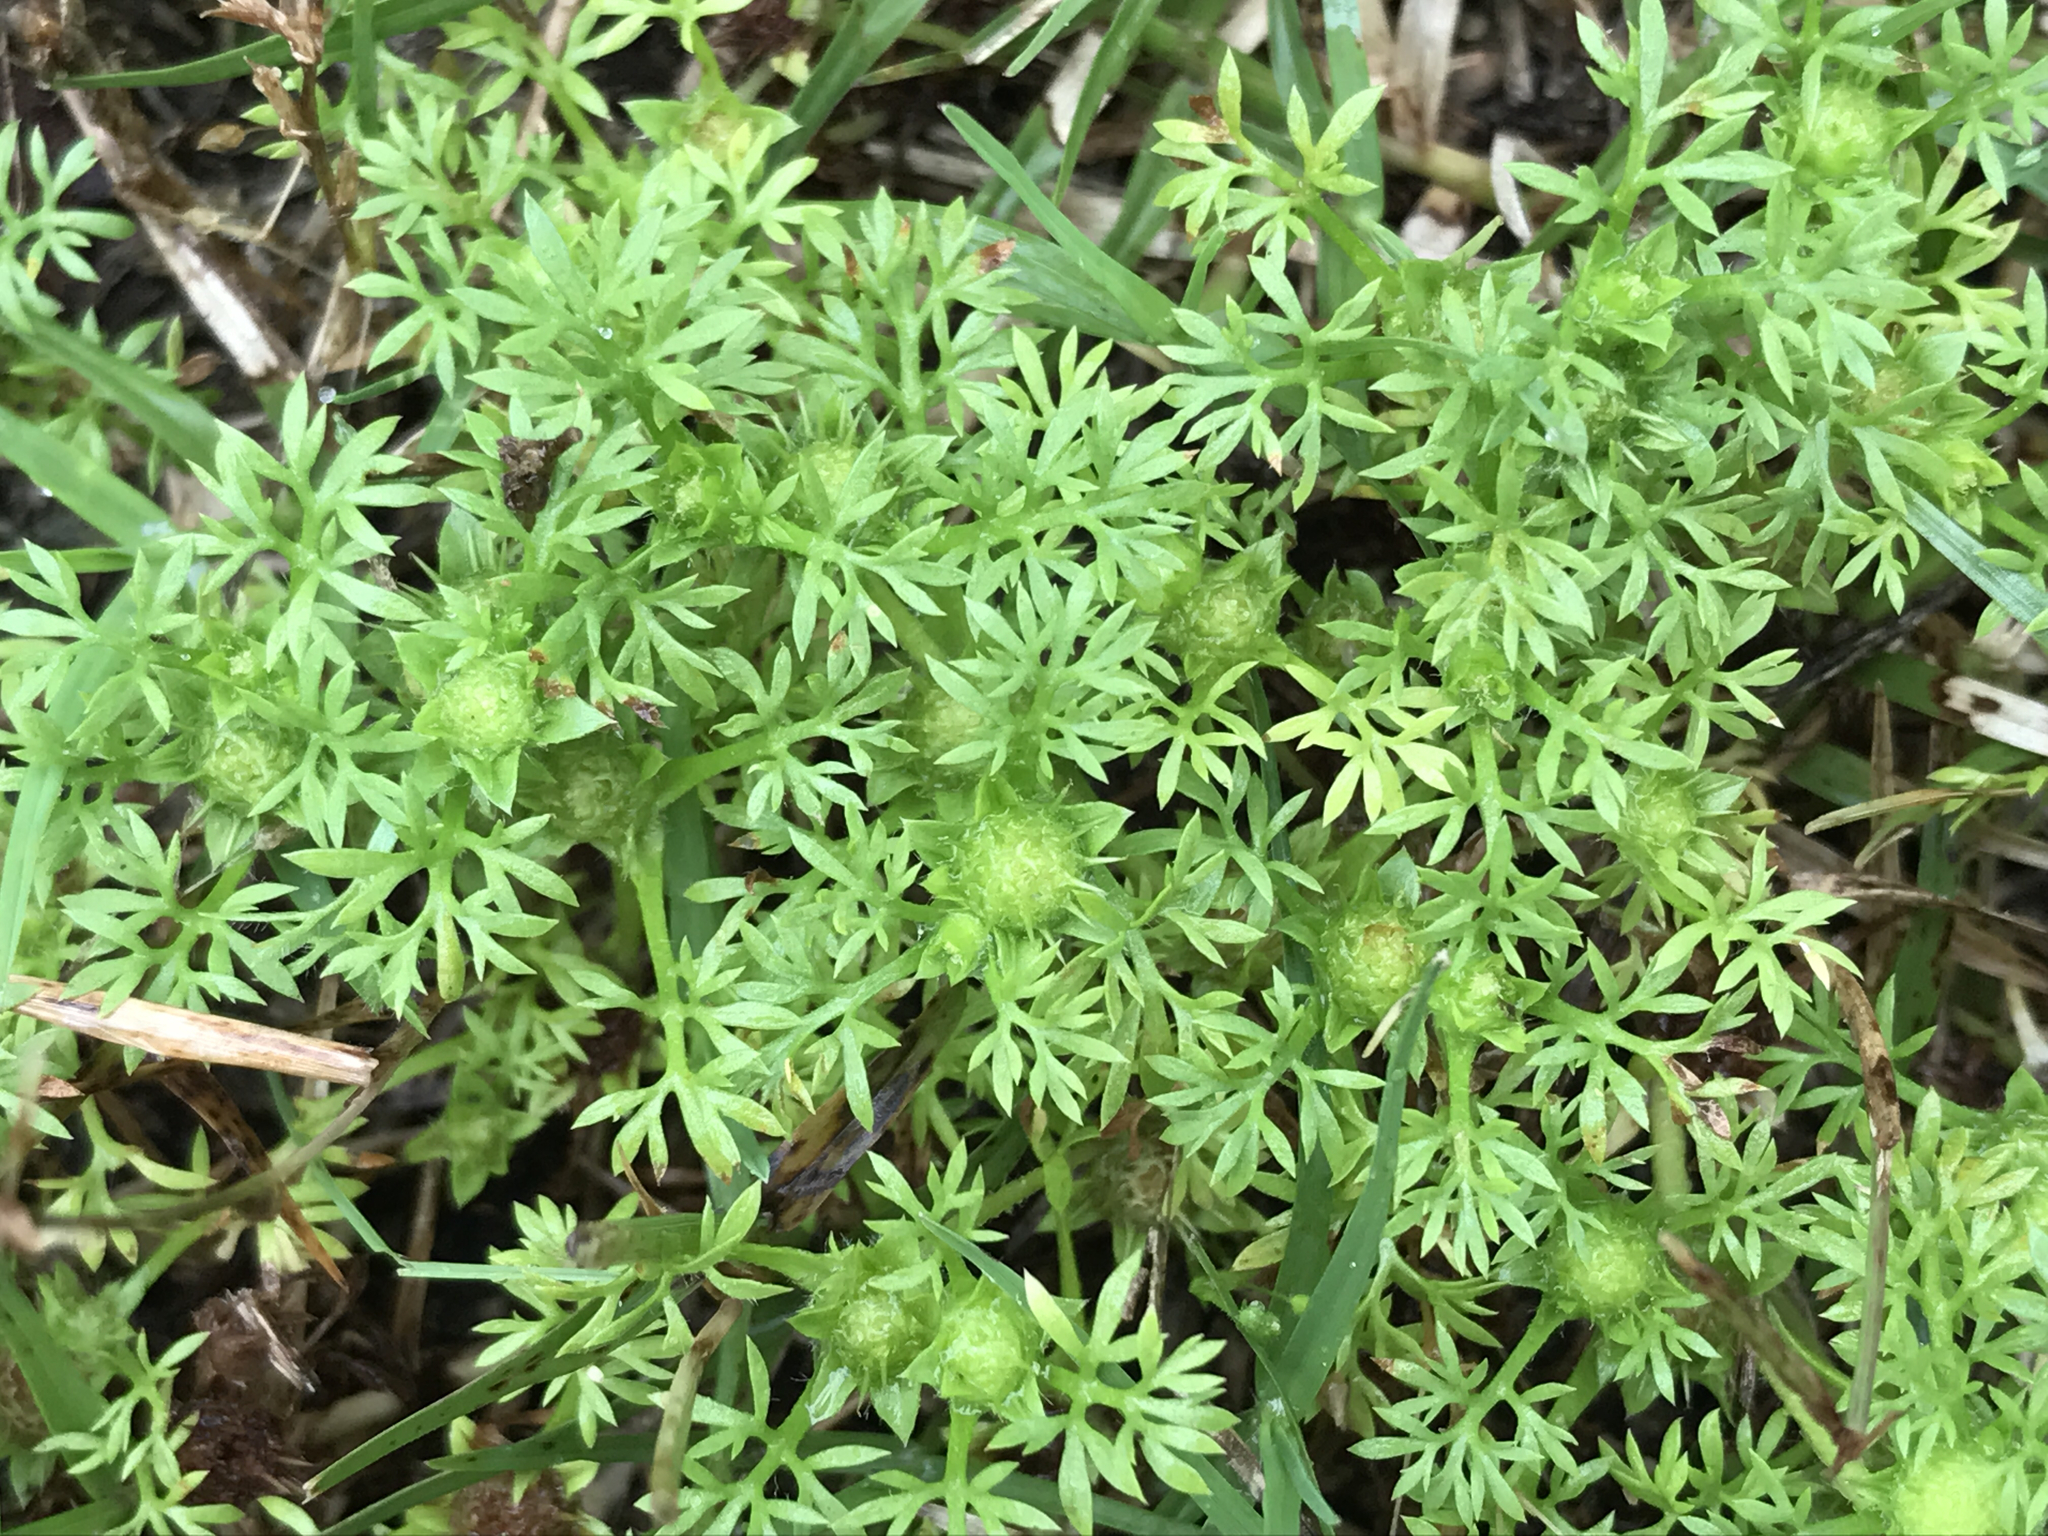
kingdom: Plantae
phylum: Tracheophyta
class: Magnoliopsida
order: Asterales
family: Asteraceae
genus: Soliva
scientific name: Soliva sessilis
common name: Field burrweed
